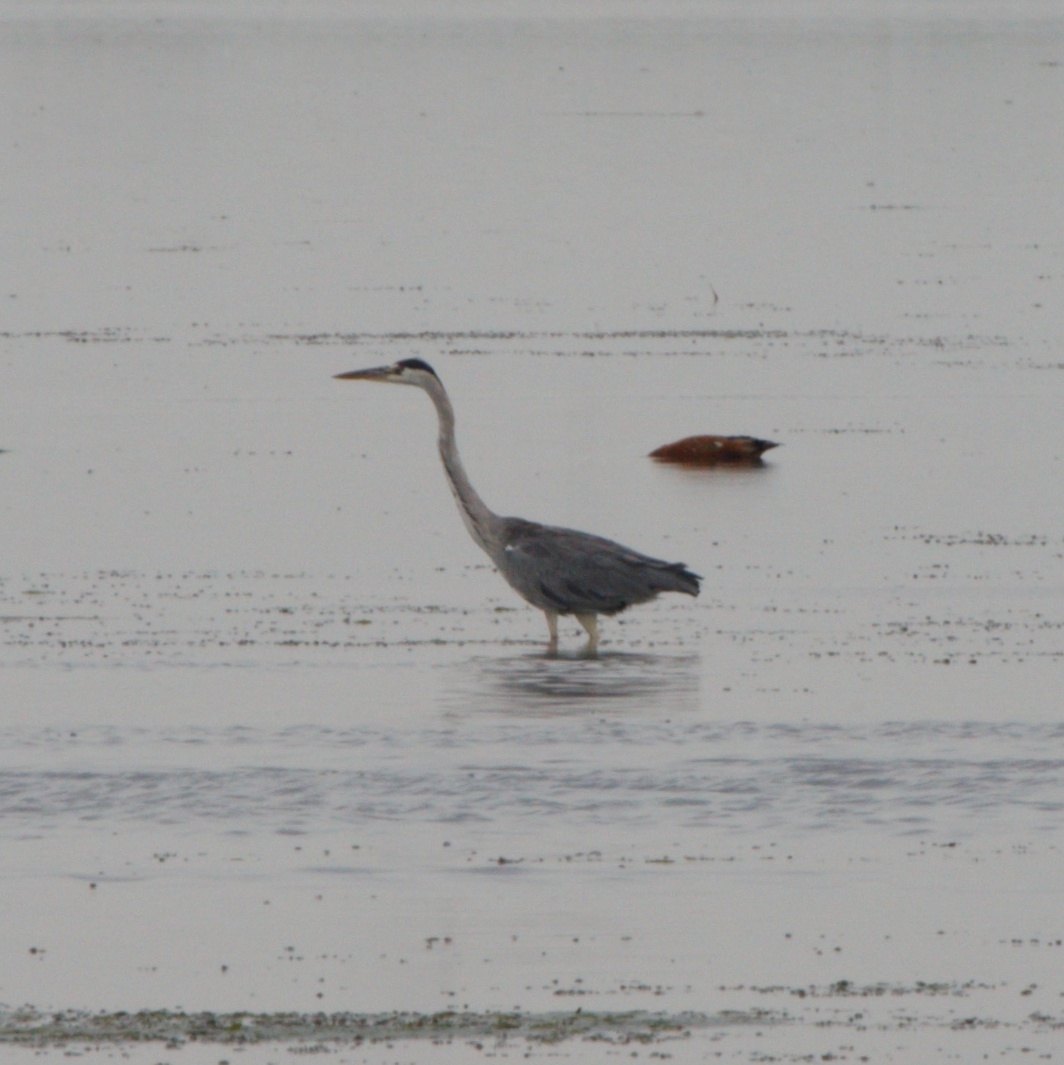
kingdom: Animalia
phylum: Chordata
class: Aves
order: Pelecaniformes
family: Ardeidae
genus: Ardea
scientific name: Ardea cinerea
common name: Grey heron
